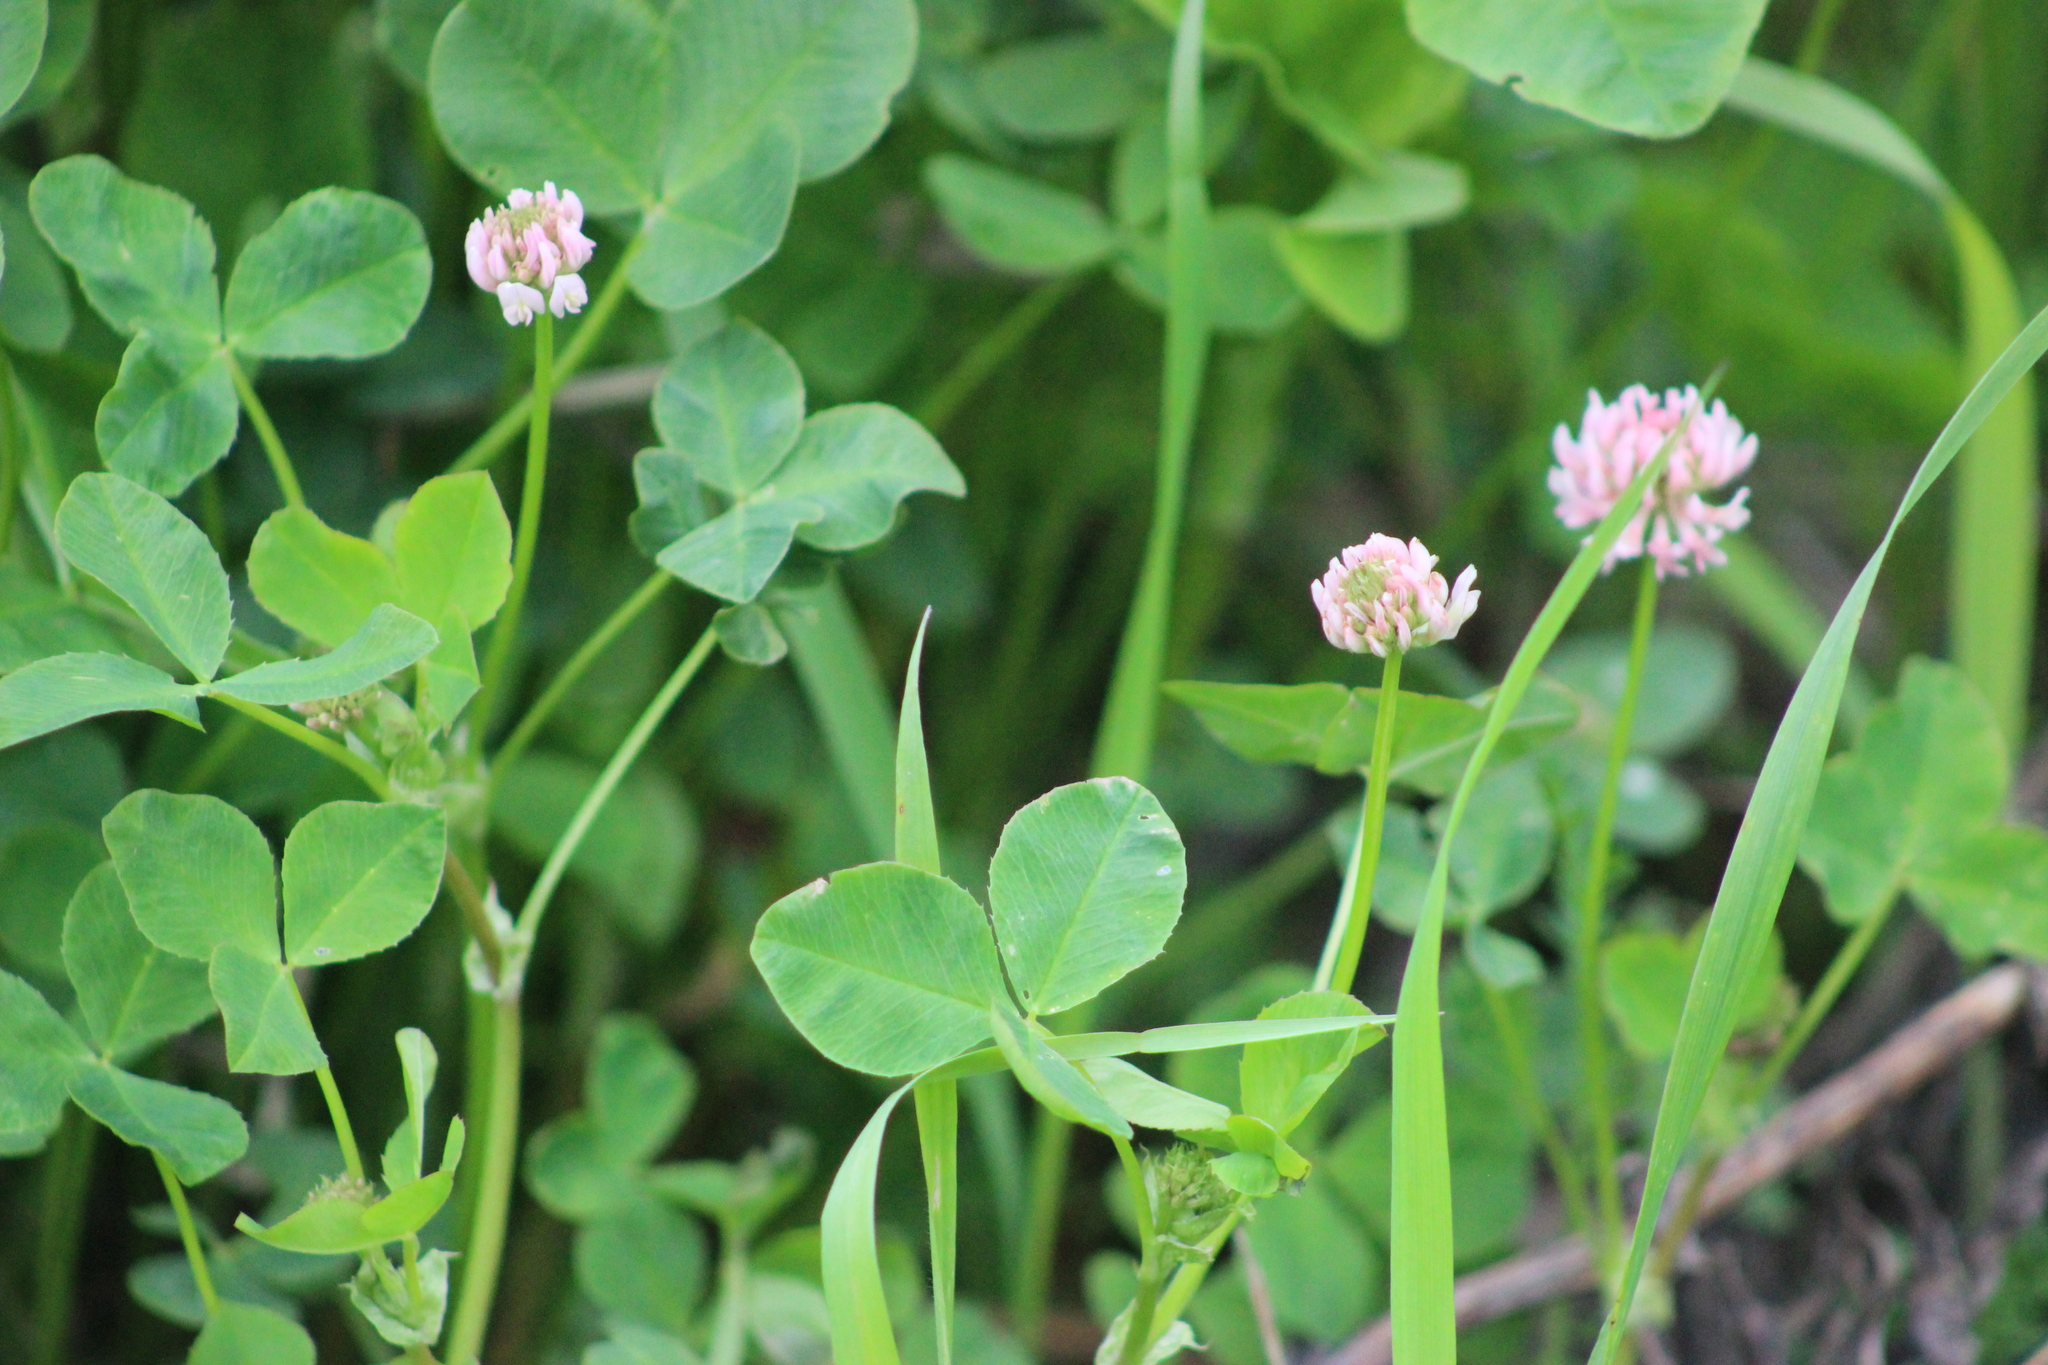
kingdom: Plantae
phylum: Tracheophyta
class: Magnoliopsida
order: Fabales
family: Fabaceae
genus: Trifolium
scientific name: Trifolium hybridum
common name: Alsike clover
